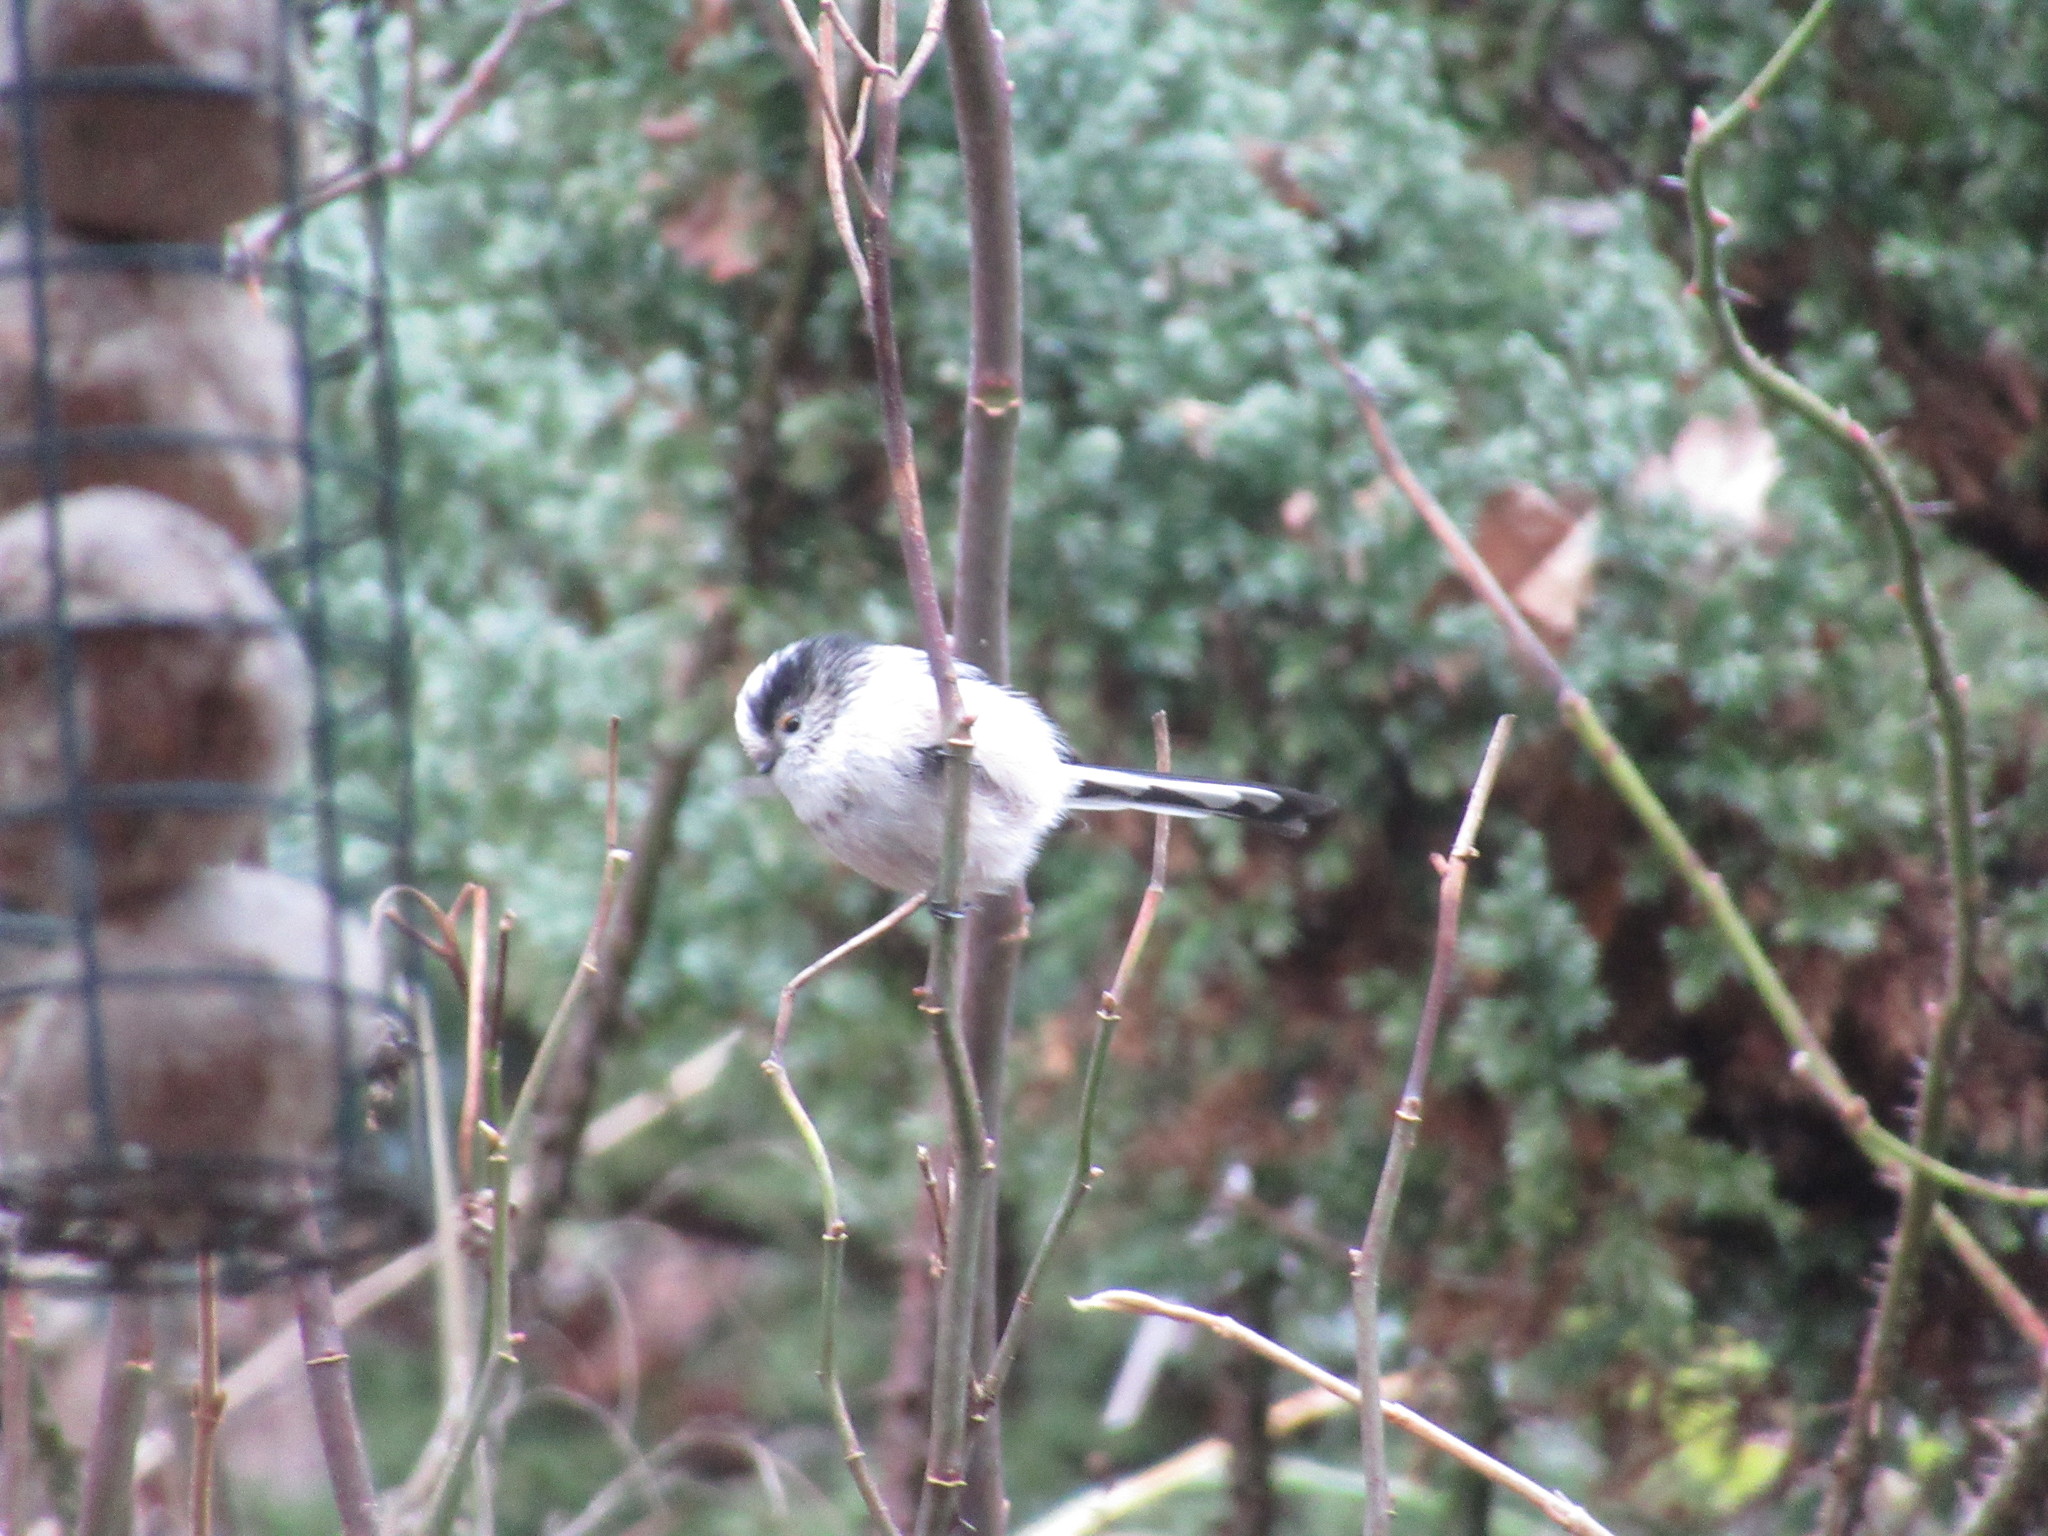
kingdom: Animalia
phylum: Chordata
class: Aves
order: Passeriformes
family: Aegithalidae
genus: Aegithalos
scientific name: Aegithalos caudatus
